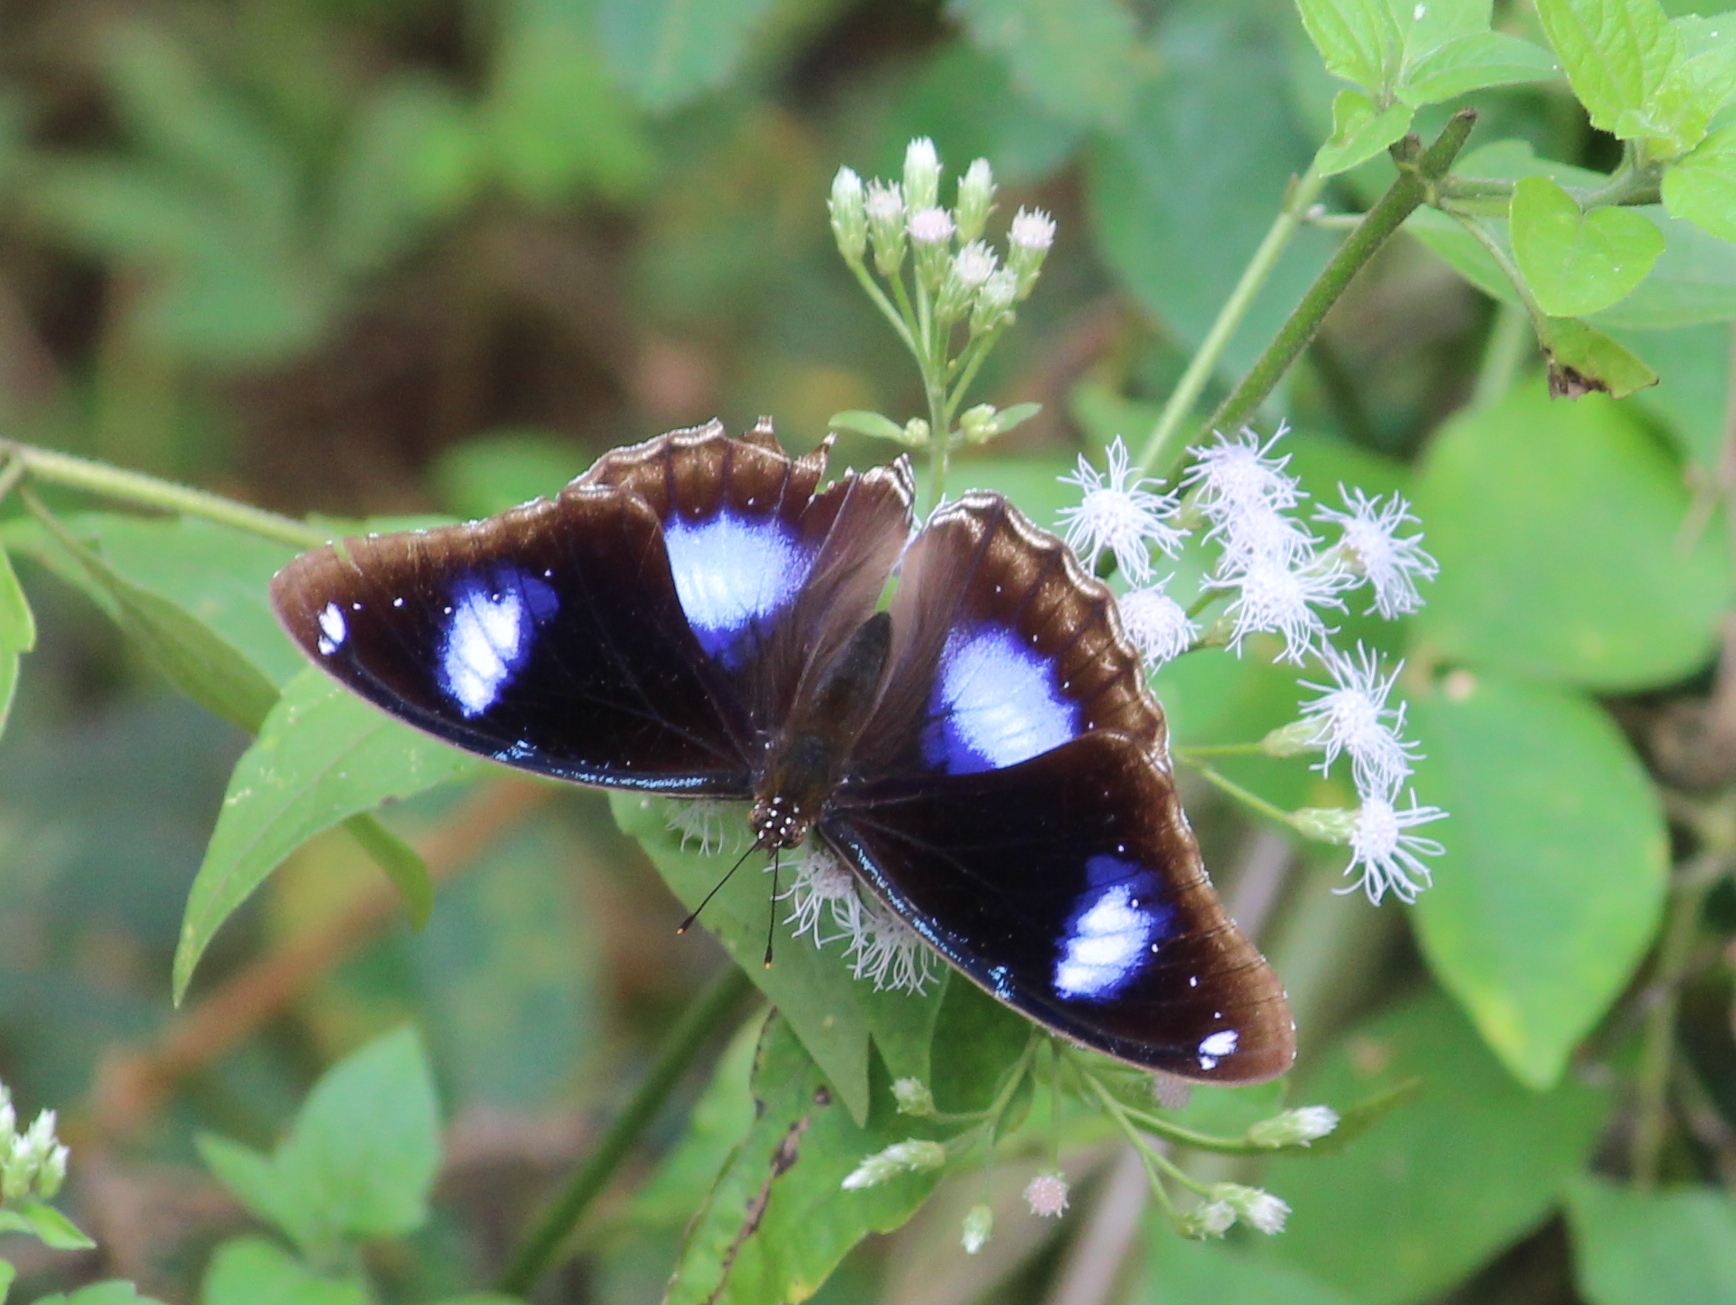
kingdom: Animalia
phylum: Arthropoda
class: Insecta
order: Lepidoptera
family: Nymphalidae
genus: Hypolimnas
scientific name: Hypolimnas bolina
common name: Great eggfly
